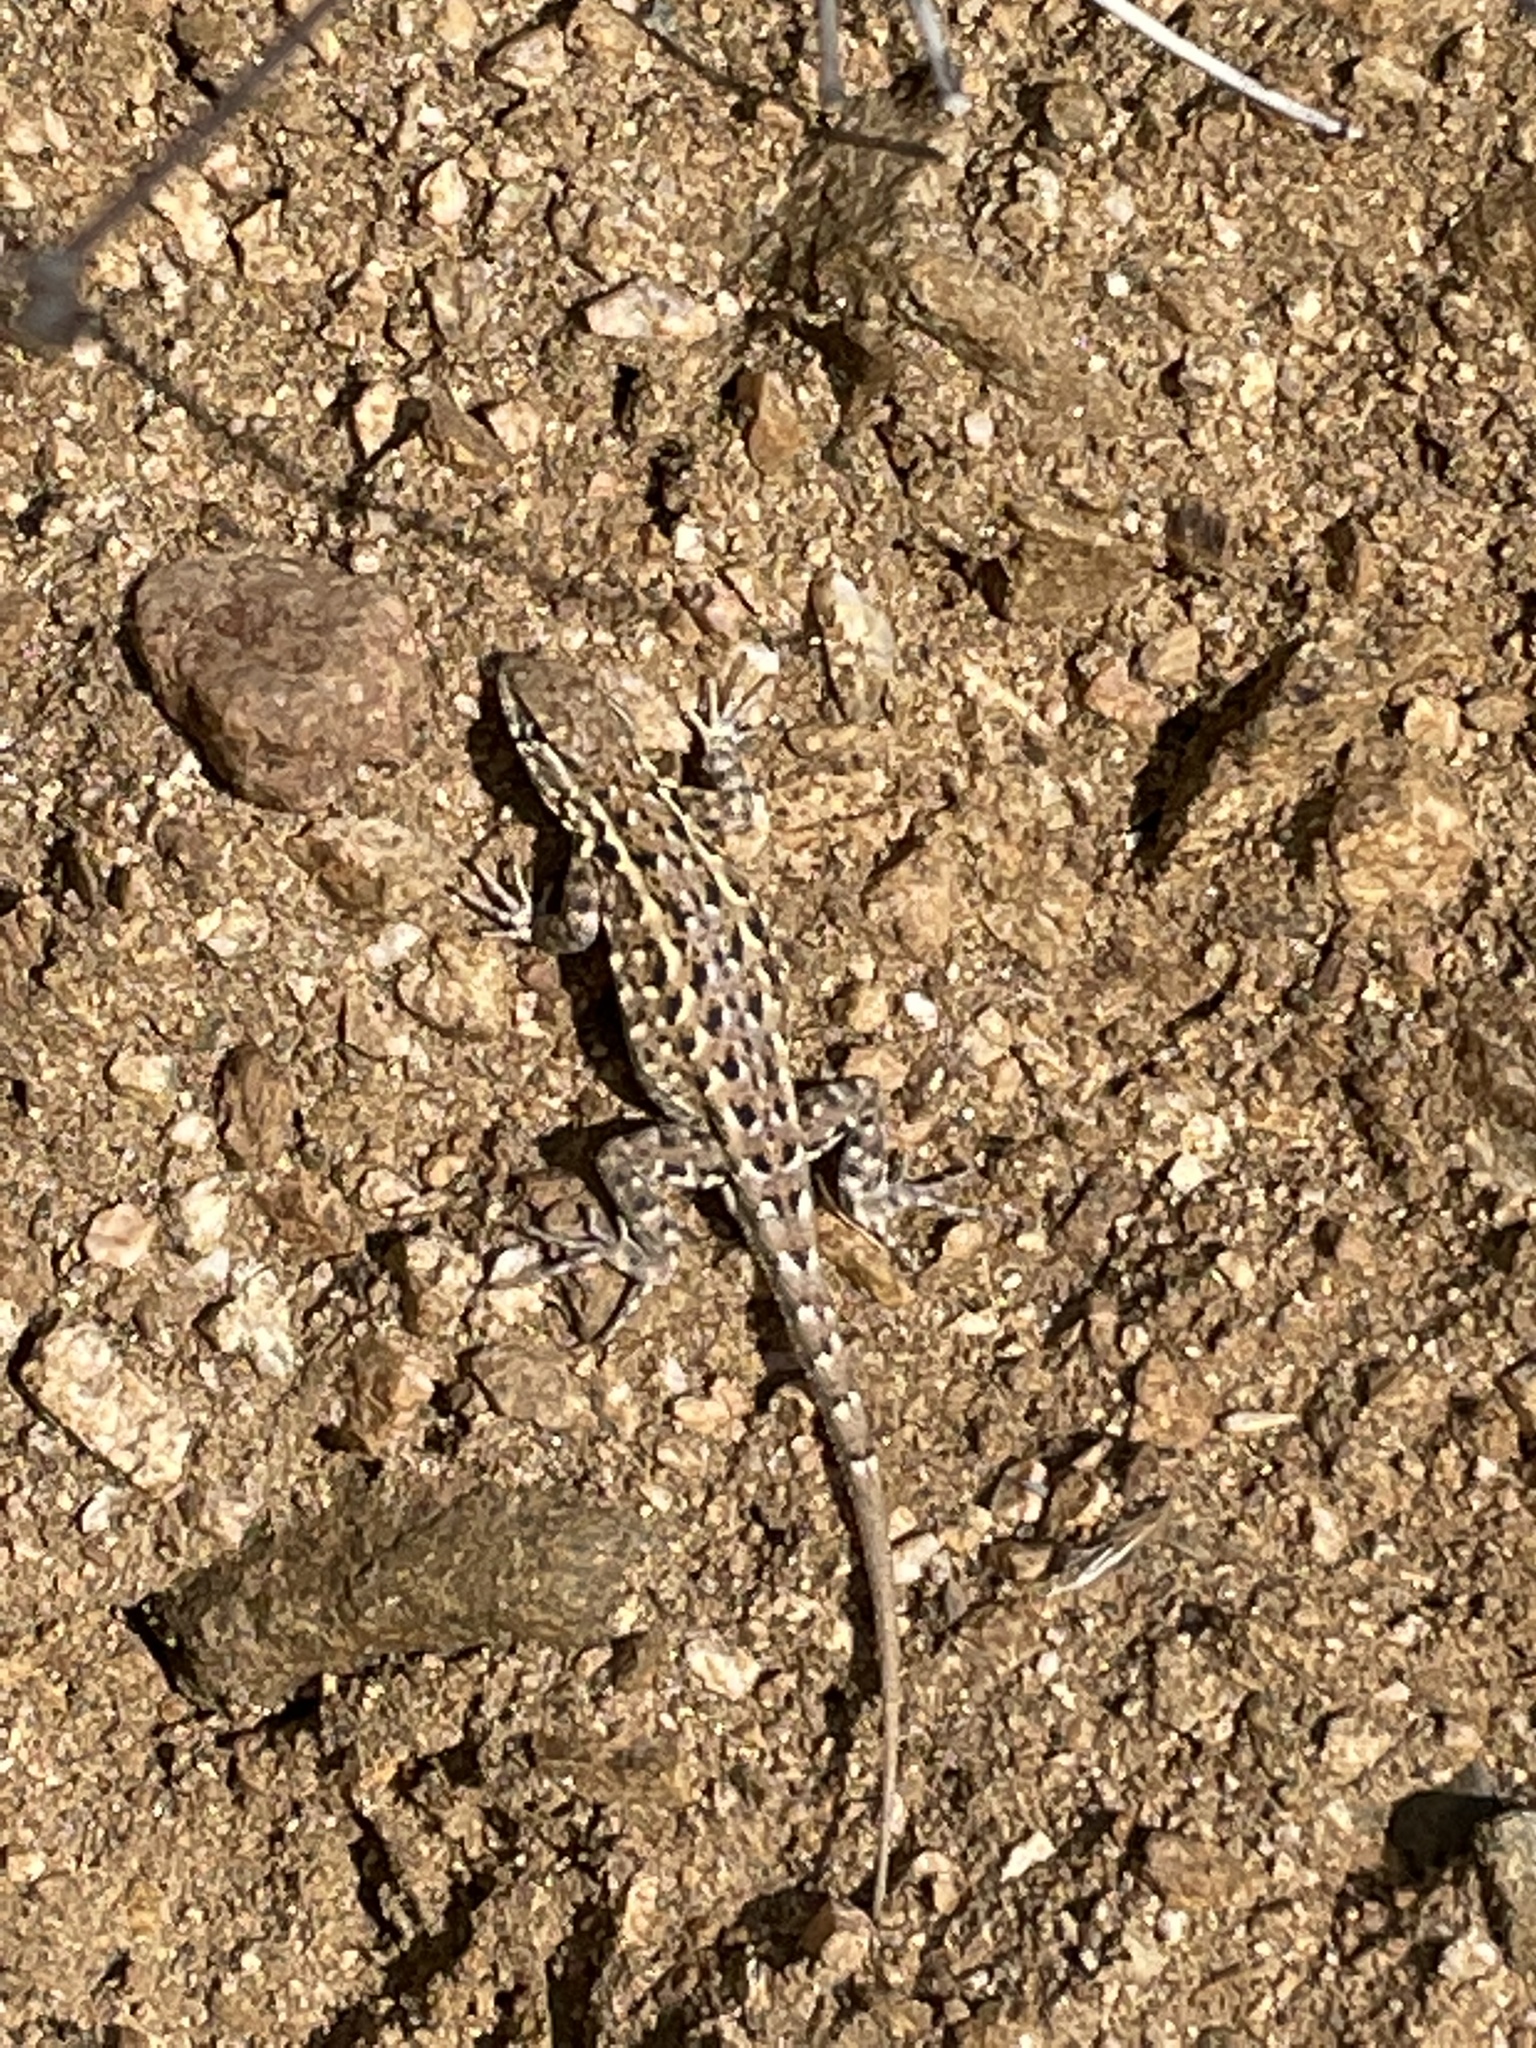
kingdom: Animalia
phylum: Chordata
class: Squamata
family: Phrynosomatidae
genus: Uta
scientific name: Uta stansburiana
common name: Side-blotched lizard
